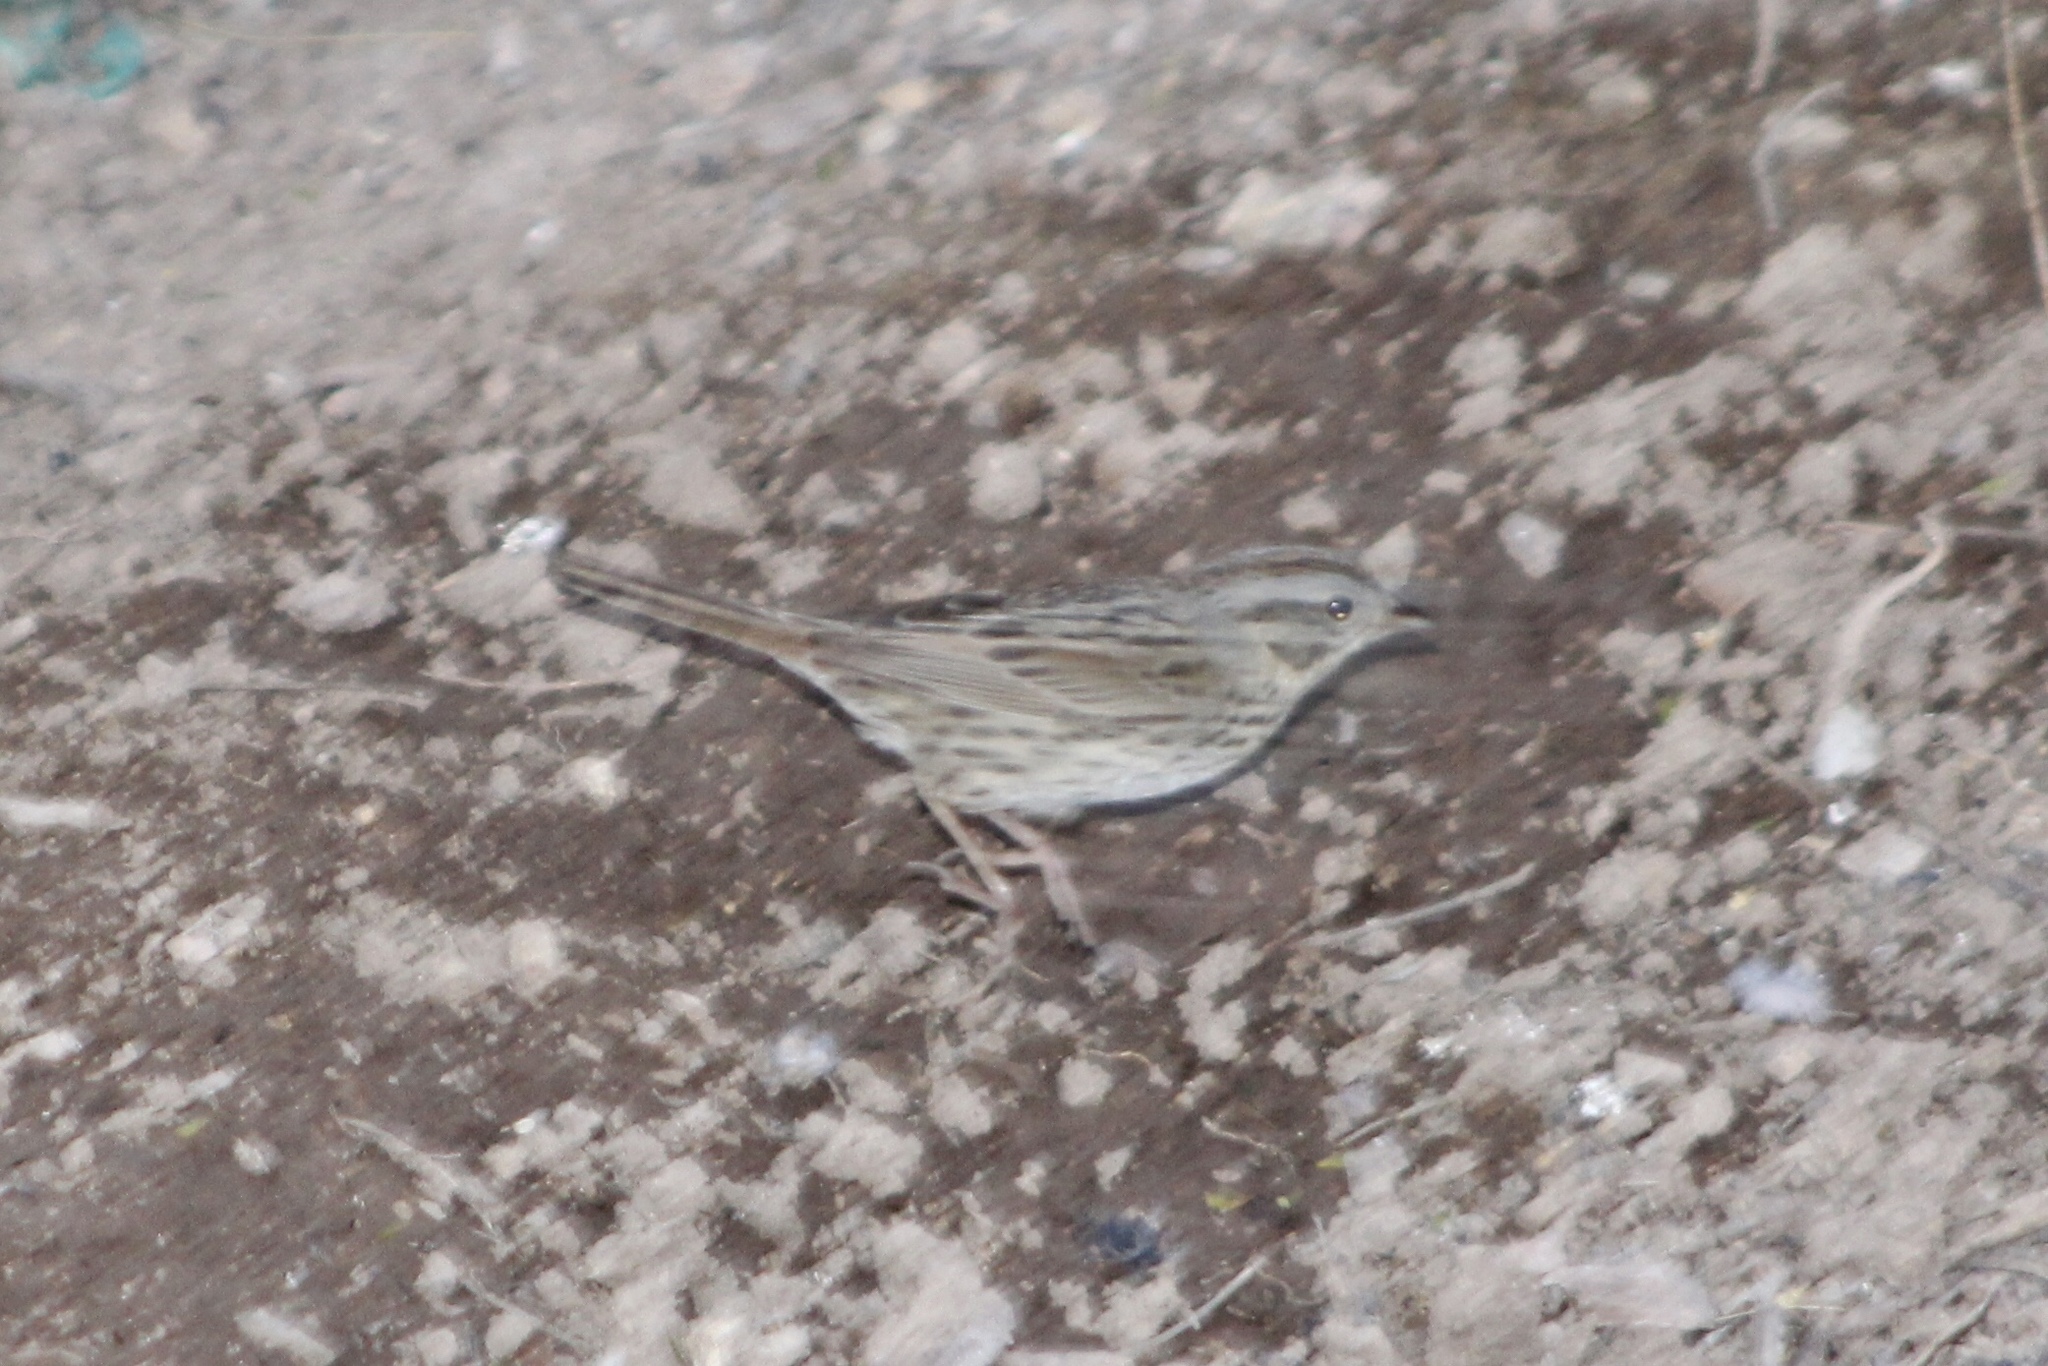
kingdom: Animalia
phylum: Chordata
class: Aves
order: Passeriformes
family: Passerellidae
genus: Melospiza
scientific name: Melospiza lincolnii
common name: Lincoln's sparrow
